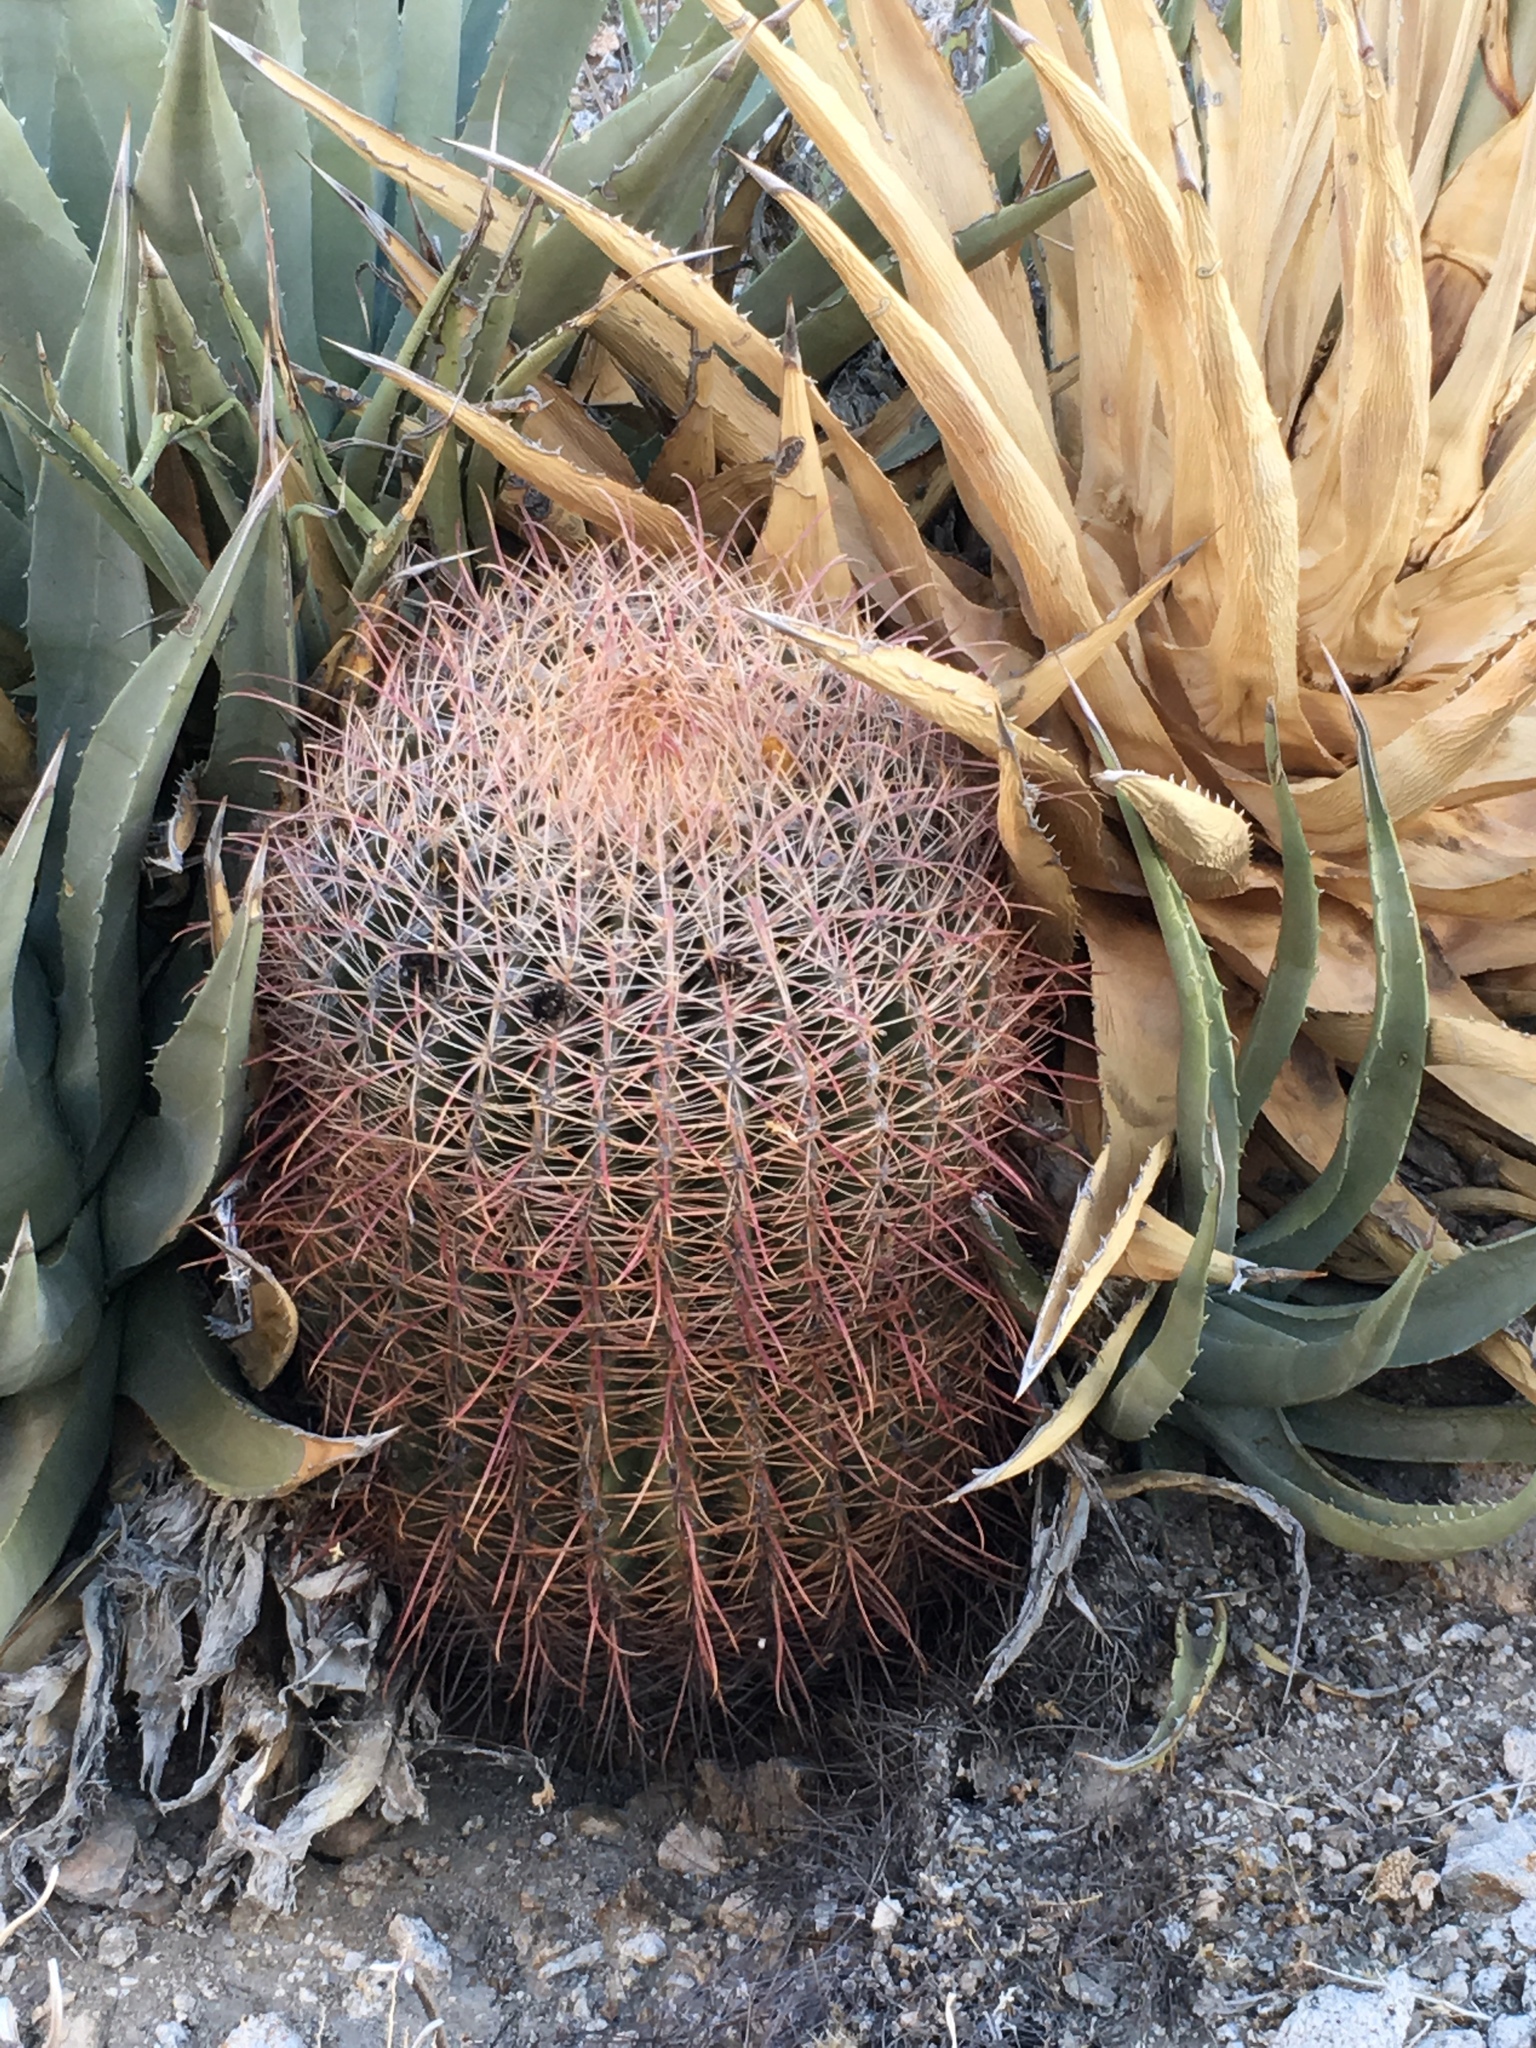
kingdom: Plantae
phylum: Tracheophyta
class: Magnoliopsida
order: Caryophyllales
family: Cactaceae
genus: Ferocactus
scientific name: Ferocactus cylindraceus
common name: California barrel cactus
